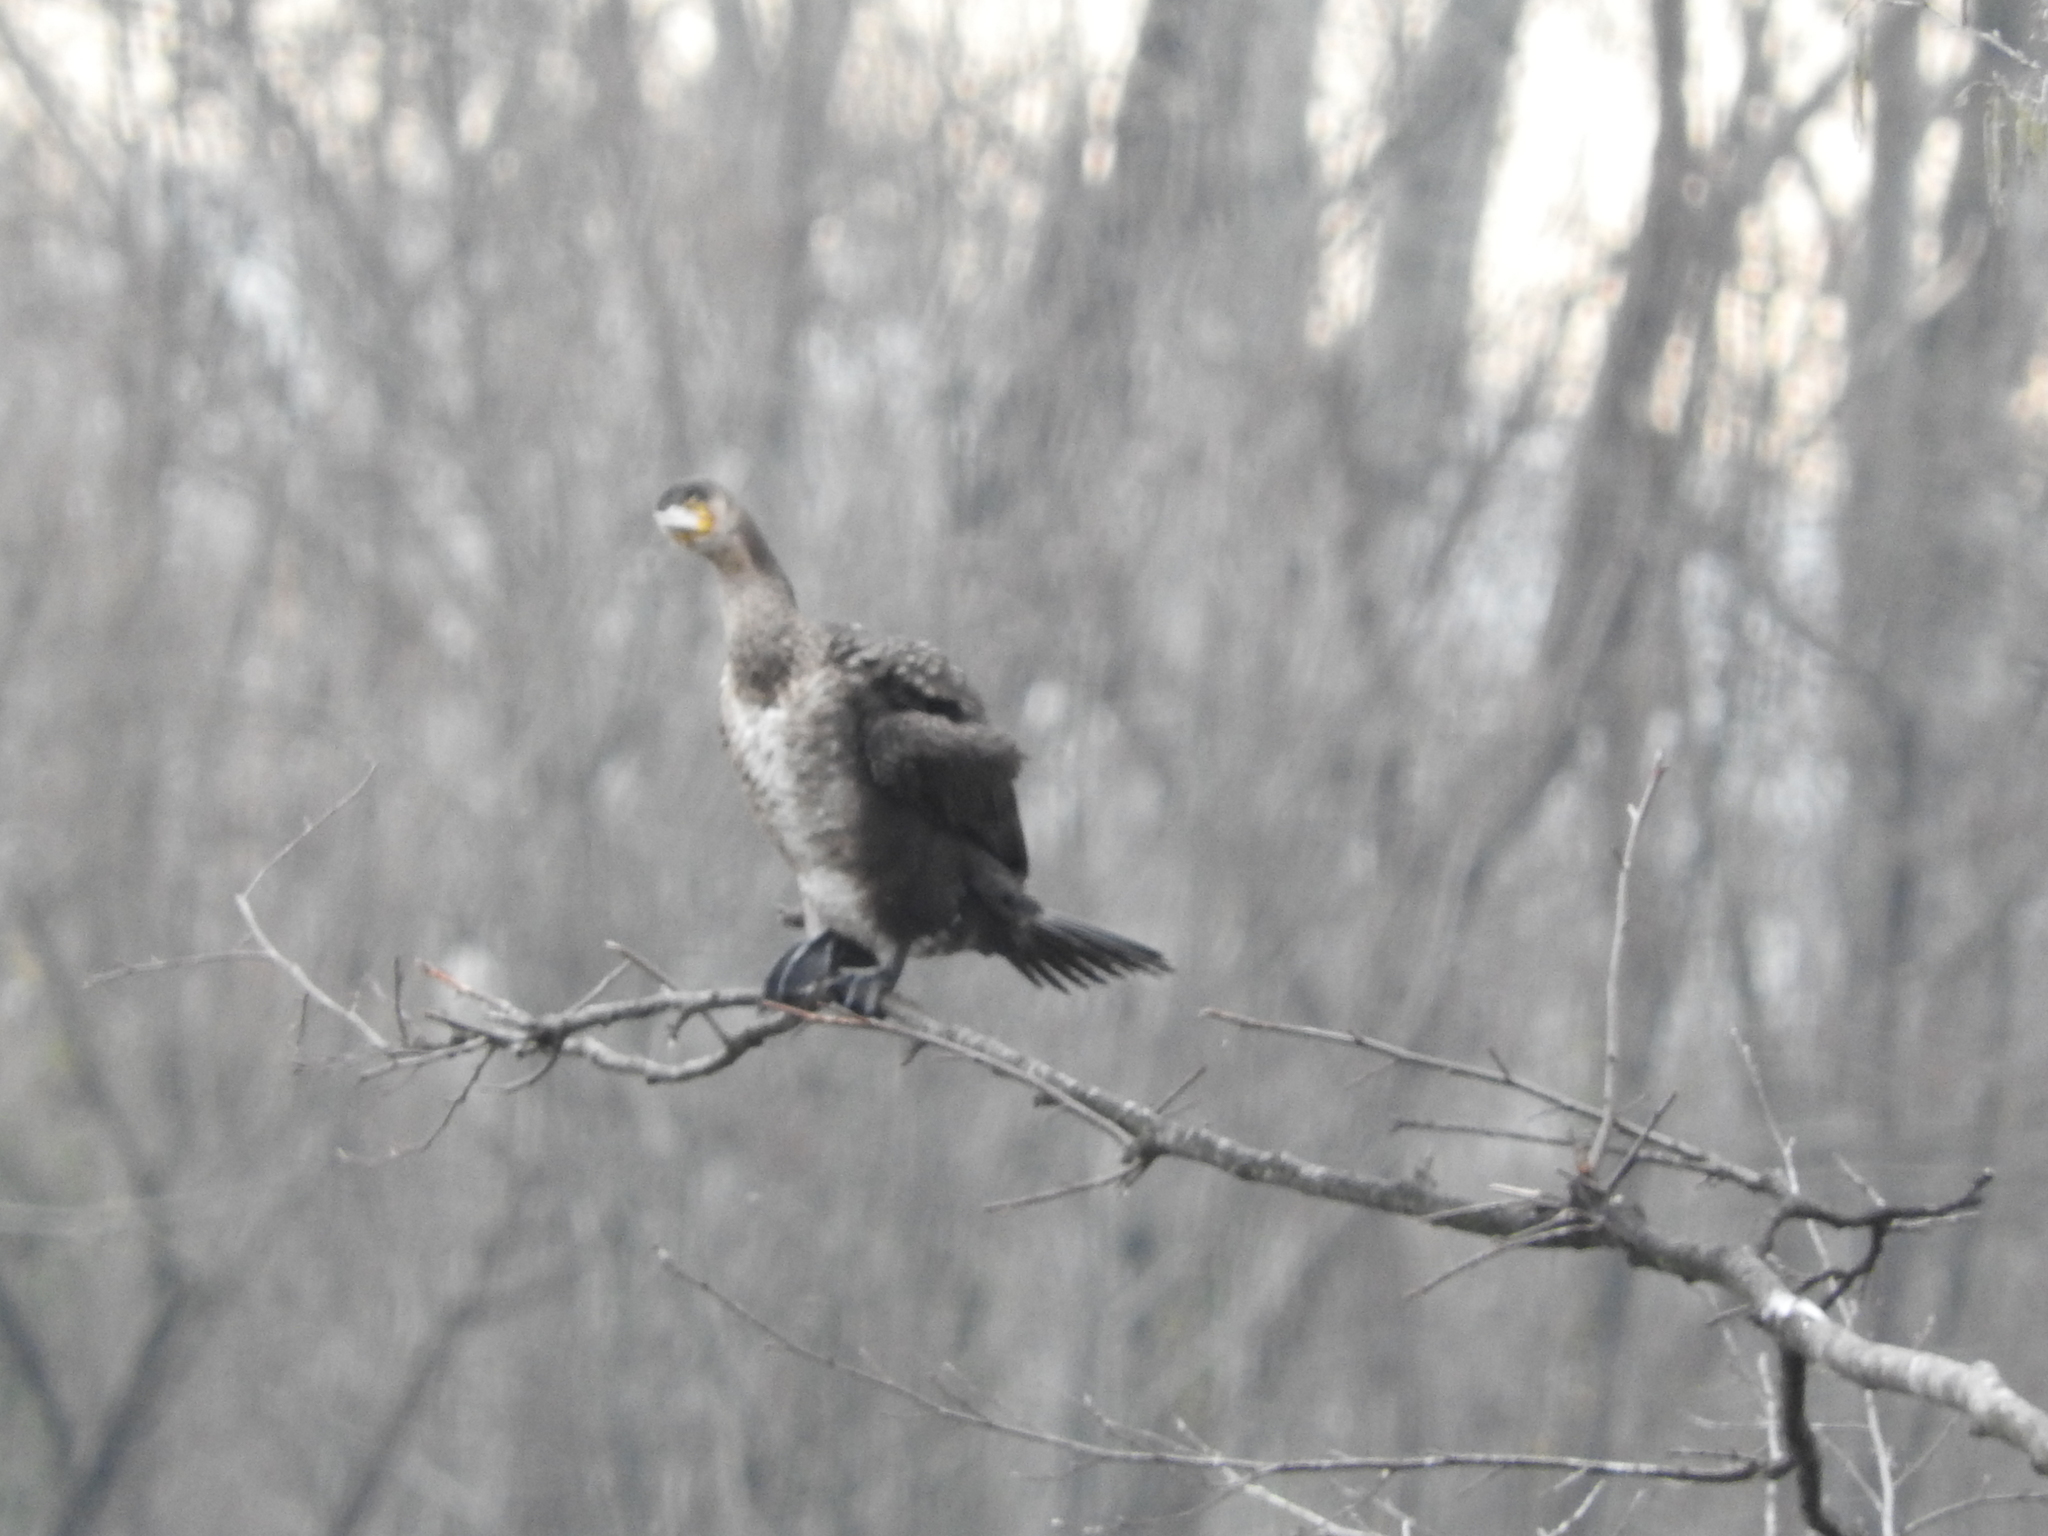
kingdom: Animalia
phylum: Chordata
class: Aves
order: Suliformes
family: Phalacrocoracidae
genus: Phalacrocorax
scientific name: Phalacrocorax carbo
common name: Great cormorant
